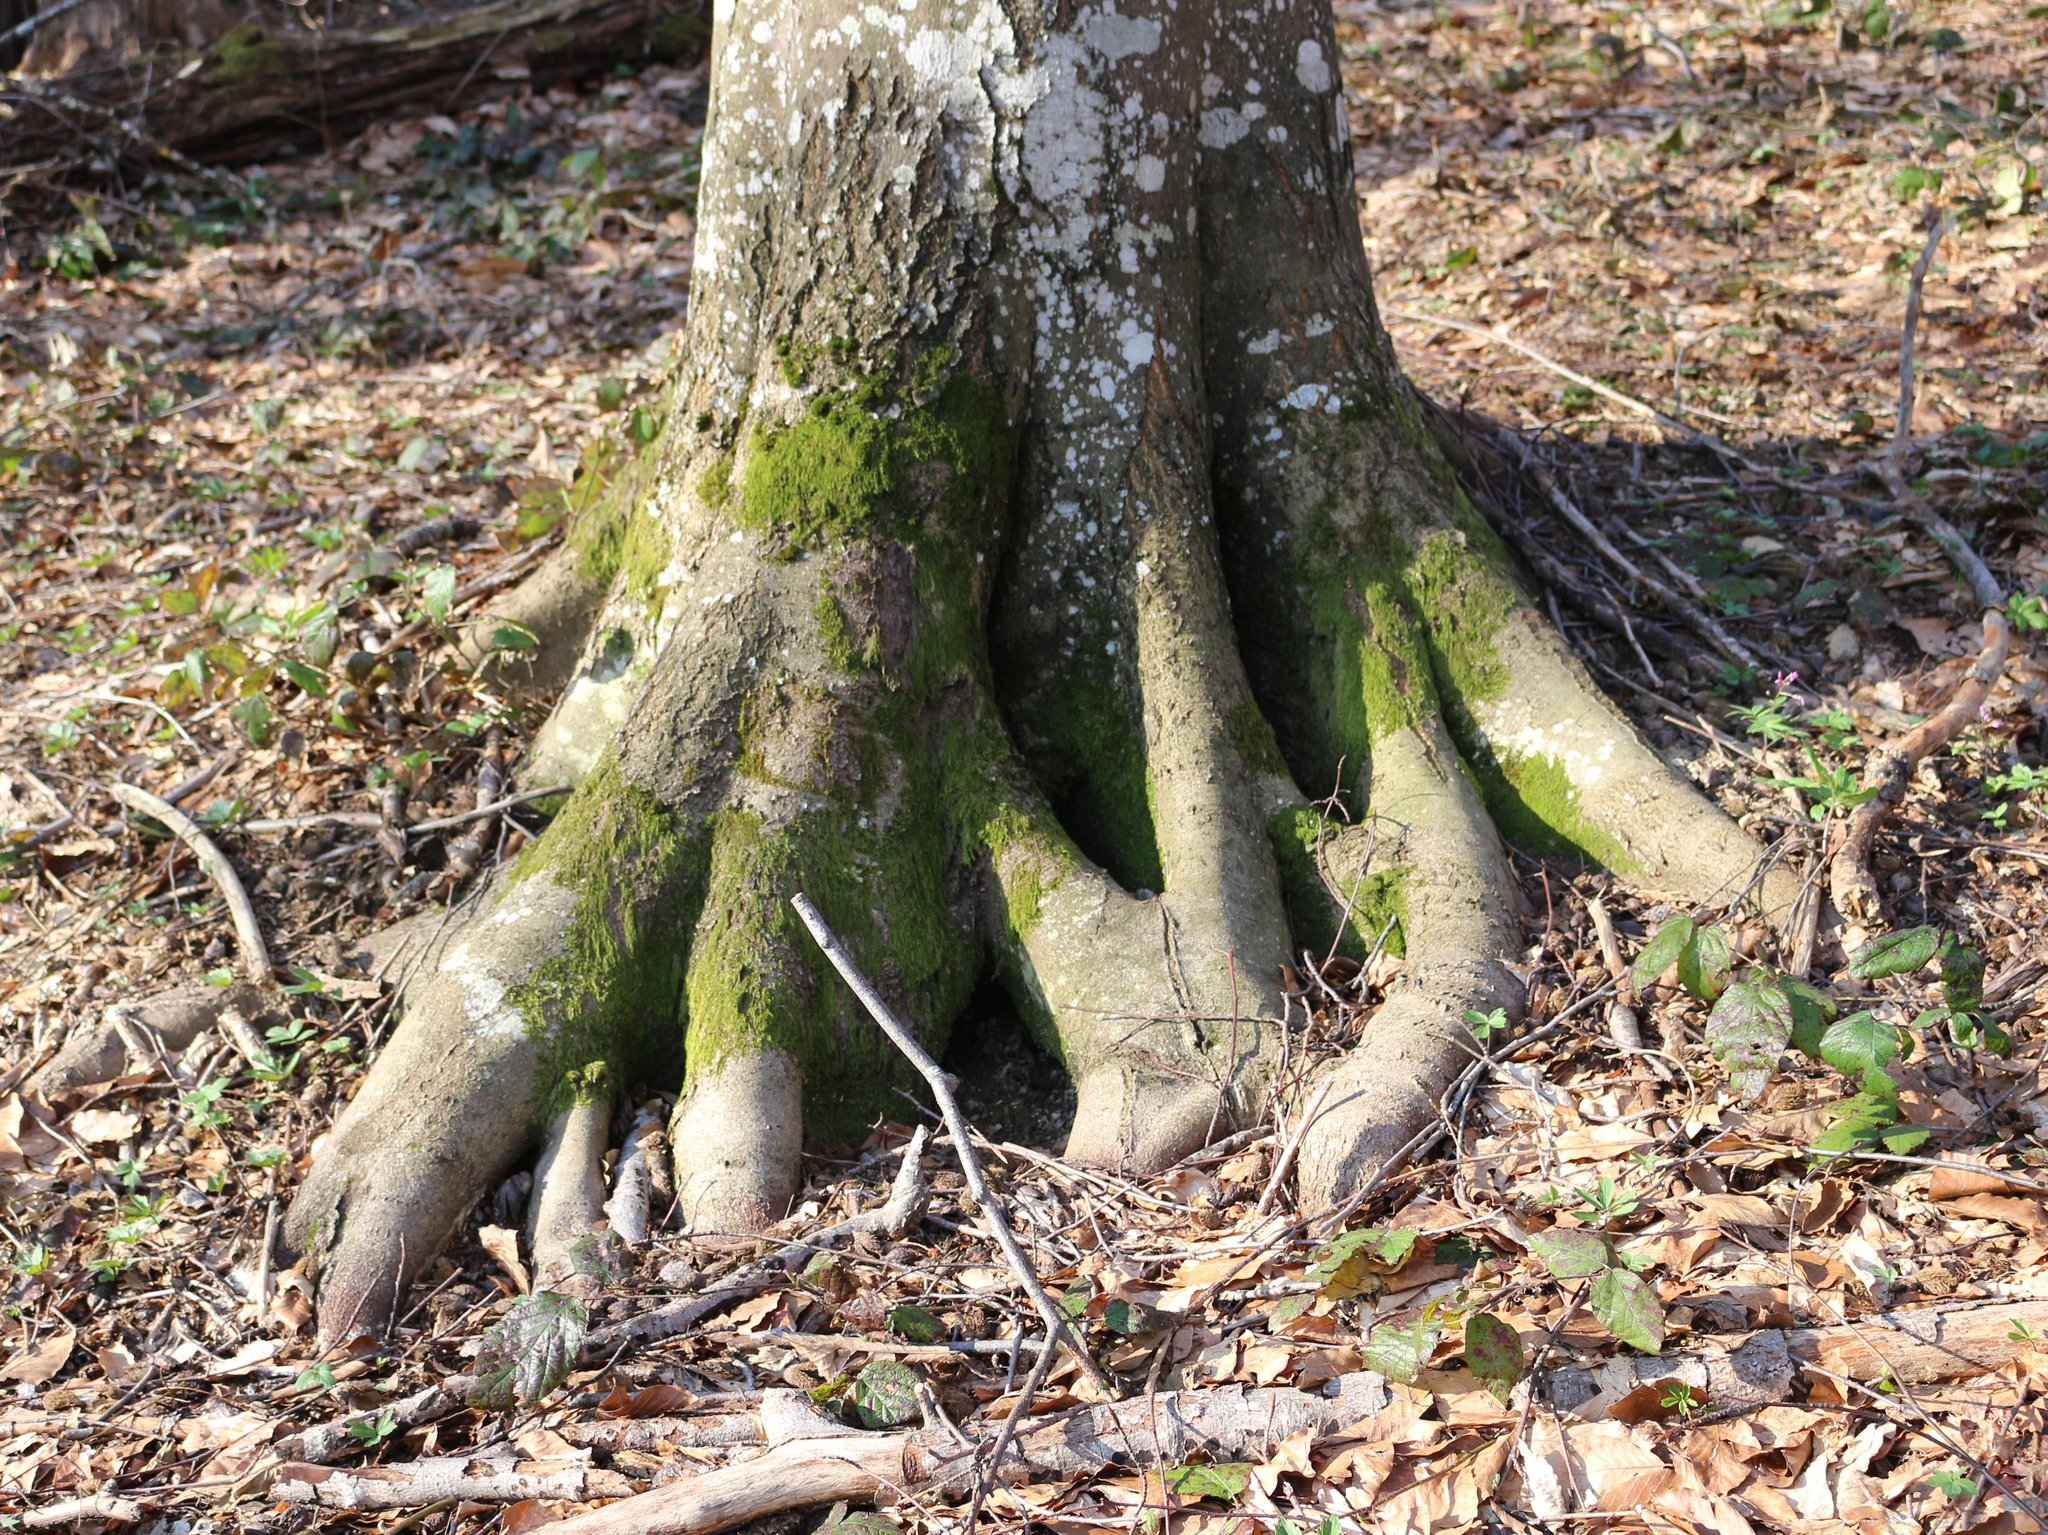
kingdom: Plantae
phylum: Tracheophyta
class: Magnoliopsida
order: Fagales
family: Fagaceae
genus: Fagus
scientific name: Fagus orientalis
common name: Oriental beech
